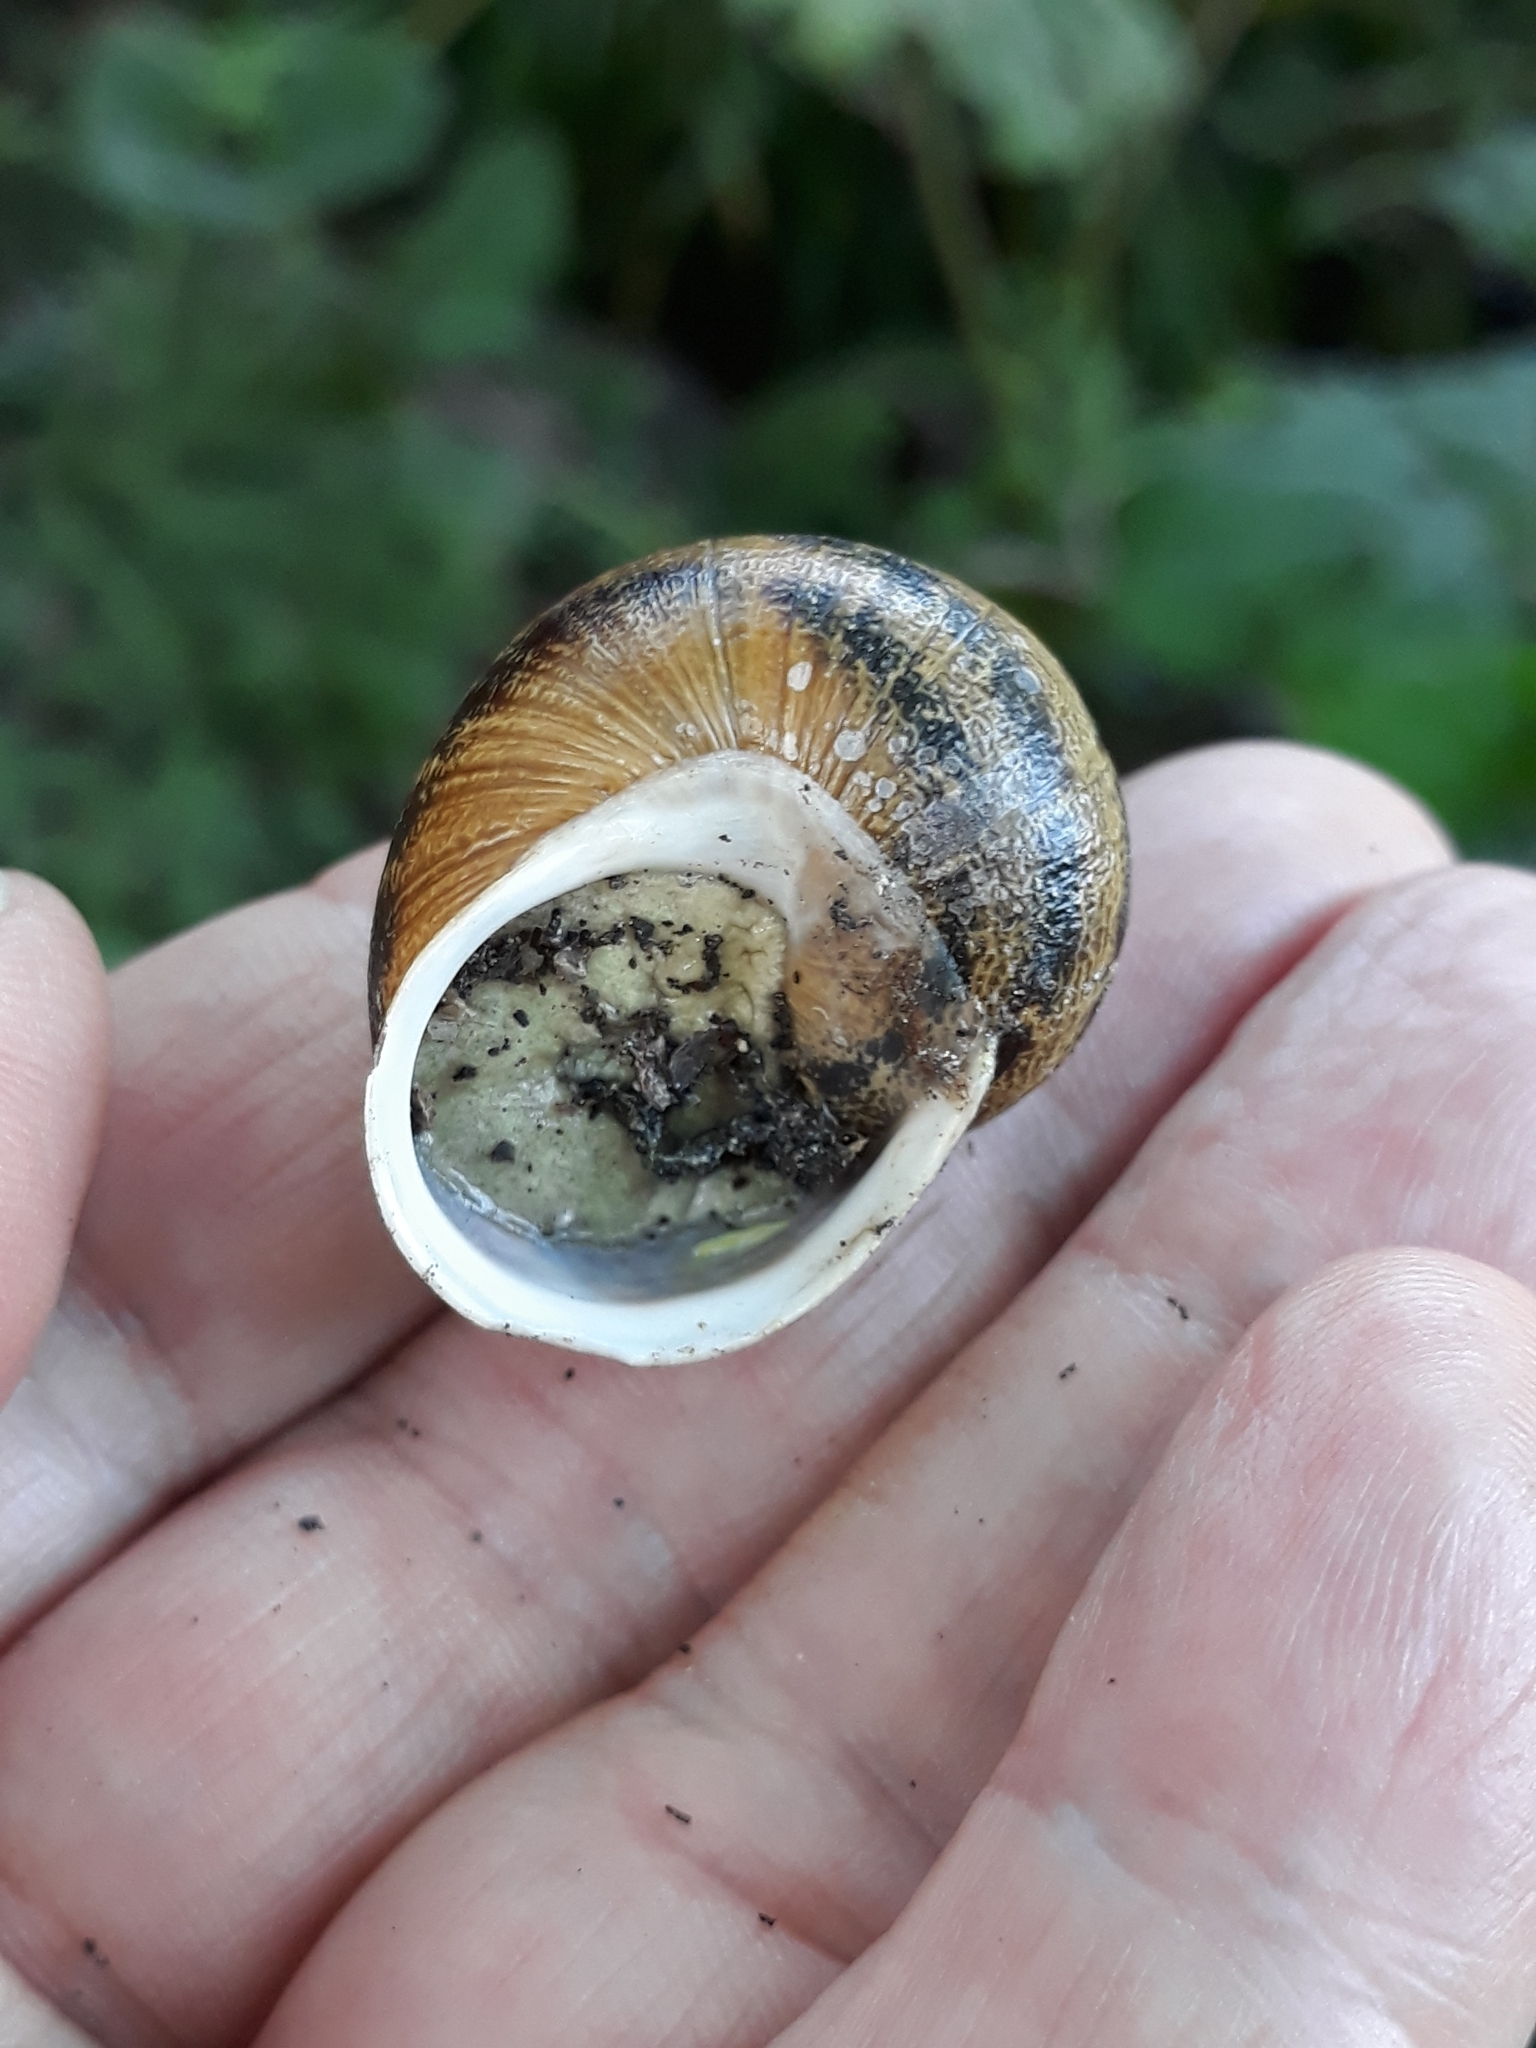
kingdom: Animalia
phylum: Mollusca
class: Gastropoda
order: Stylommatophora
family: Helicidae
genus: Cornu
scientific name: Cornu aspersum
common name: Brown garden snail
